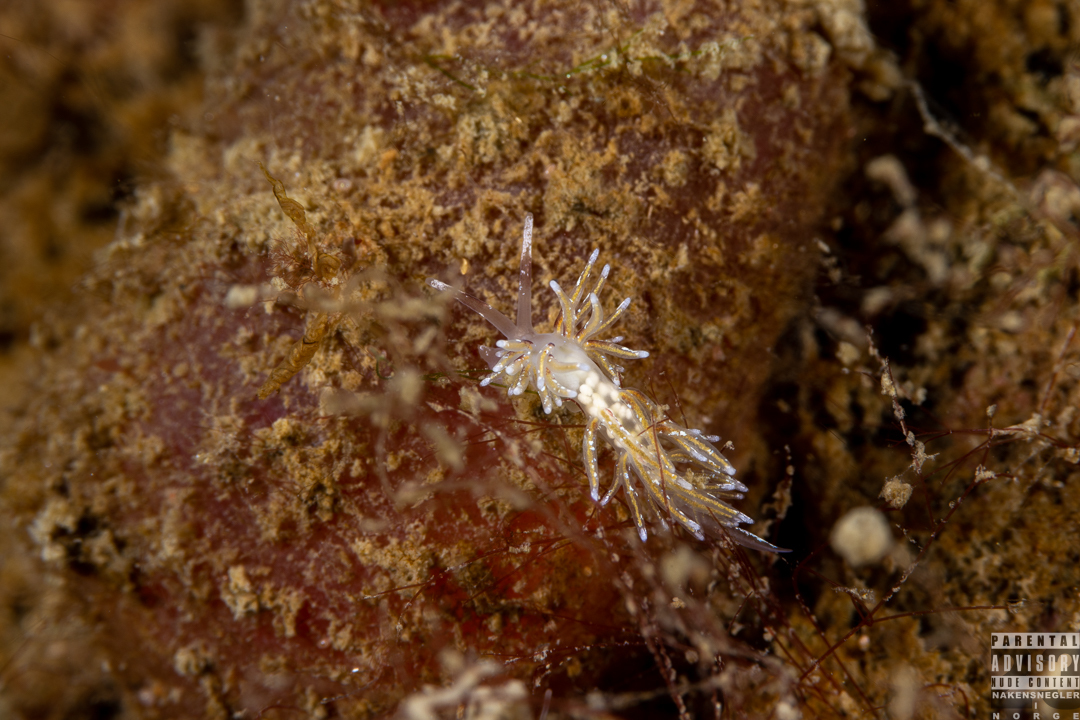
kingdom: Animalia
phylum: Mollusca
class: Gastropoda
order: Nudibranchia
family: Trinchesiidae
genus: Rubramoena
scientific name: Rubramoena rubescens
